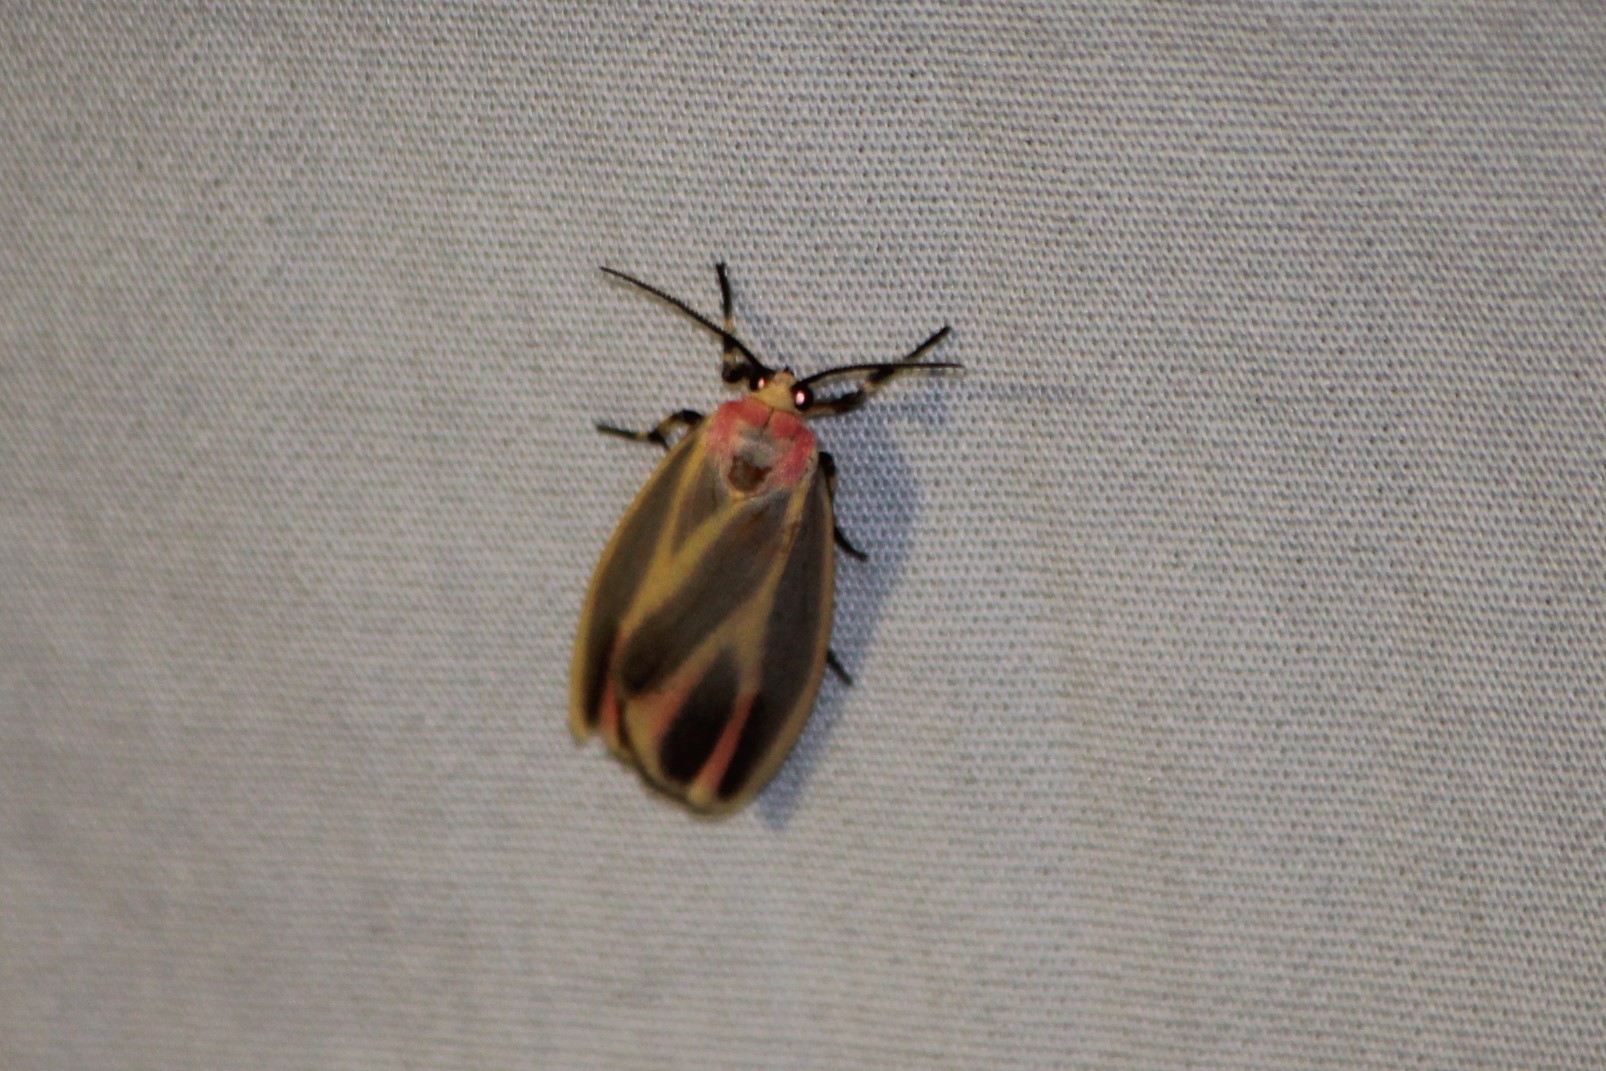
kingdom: Animalia
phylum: Arthropoda
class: Insecta
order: Lepidoptera
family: Erebidae
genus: Hypoprepia
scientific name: Hypoprepia fucosa
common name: Painted lichen moth
